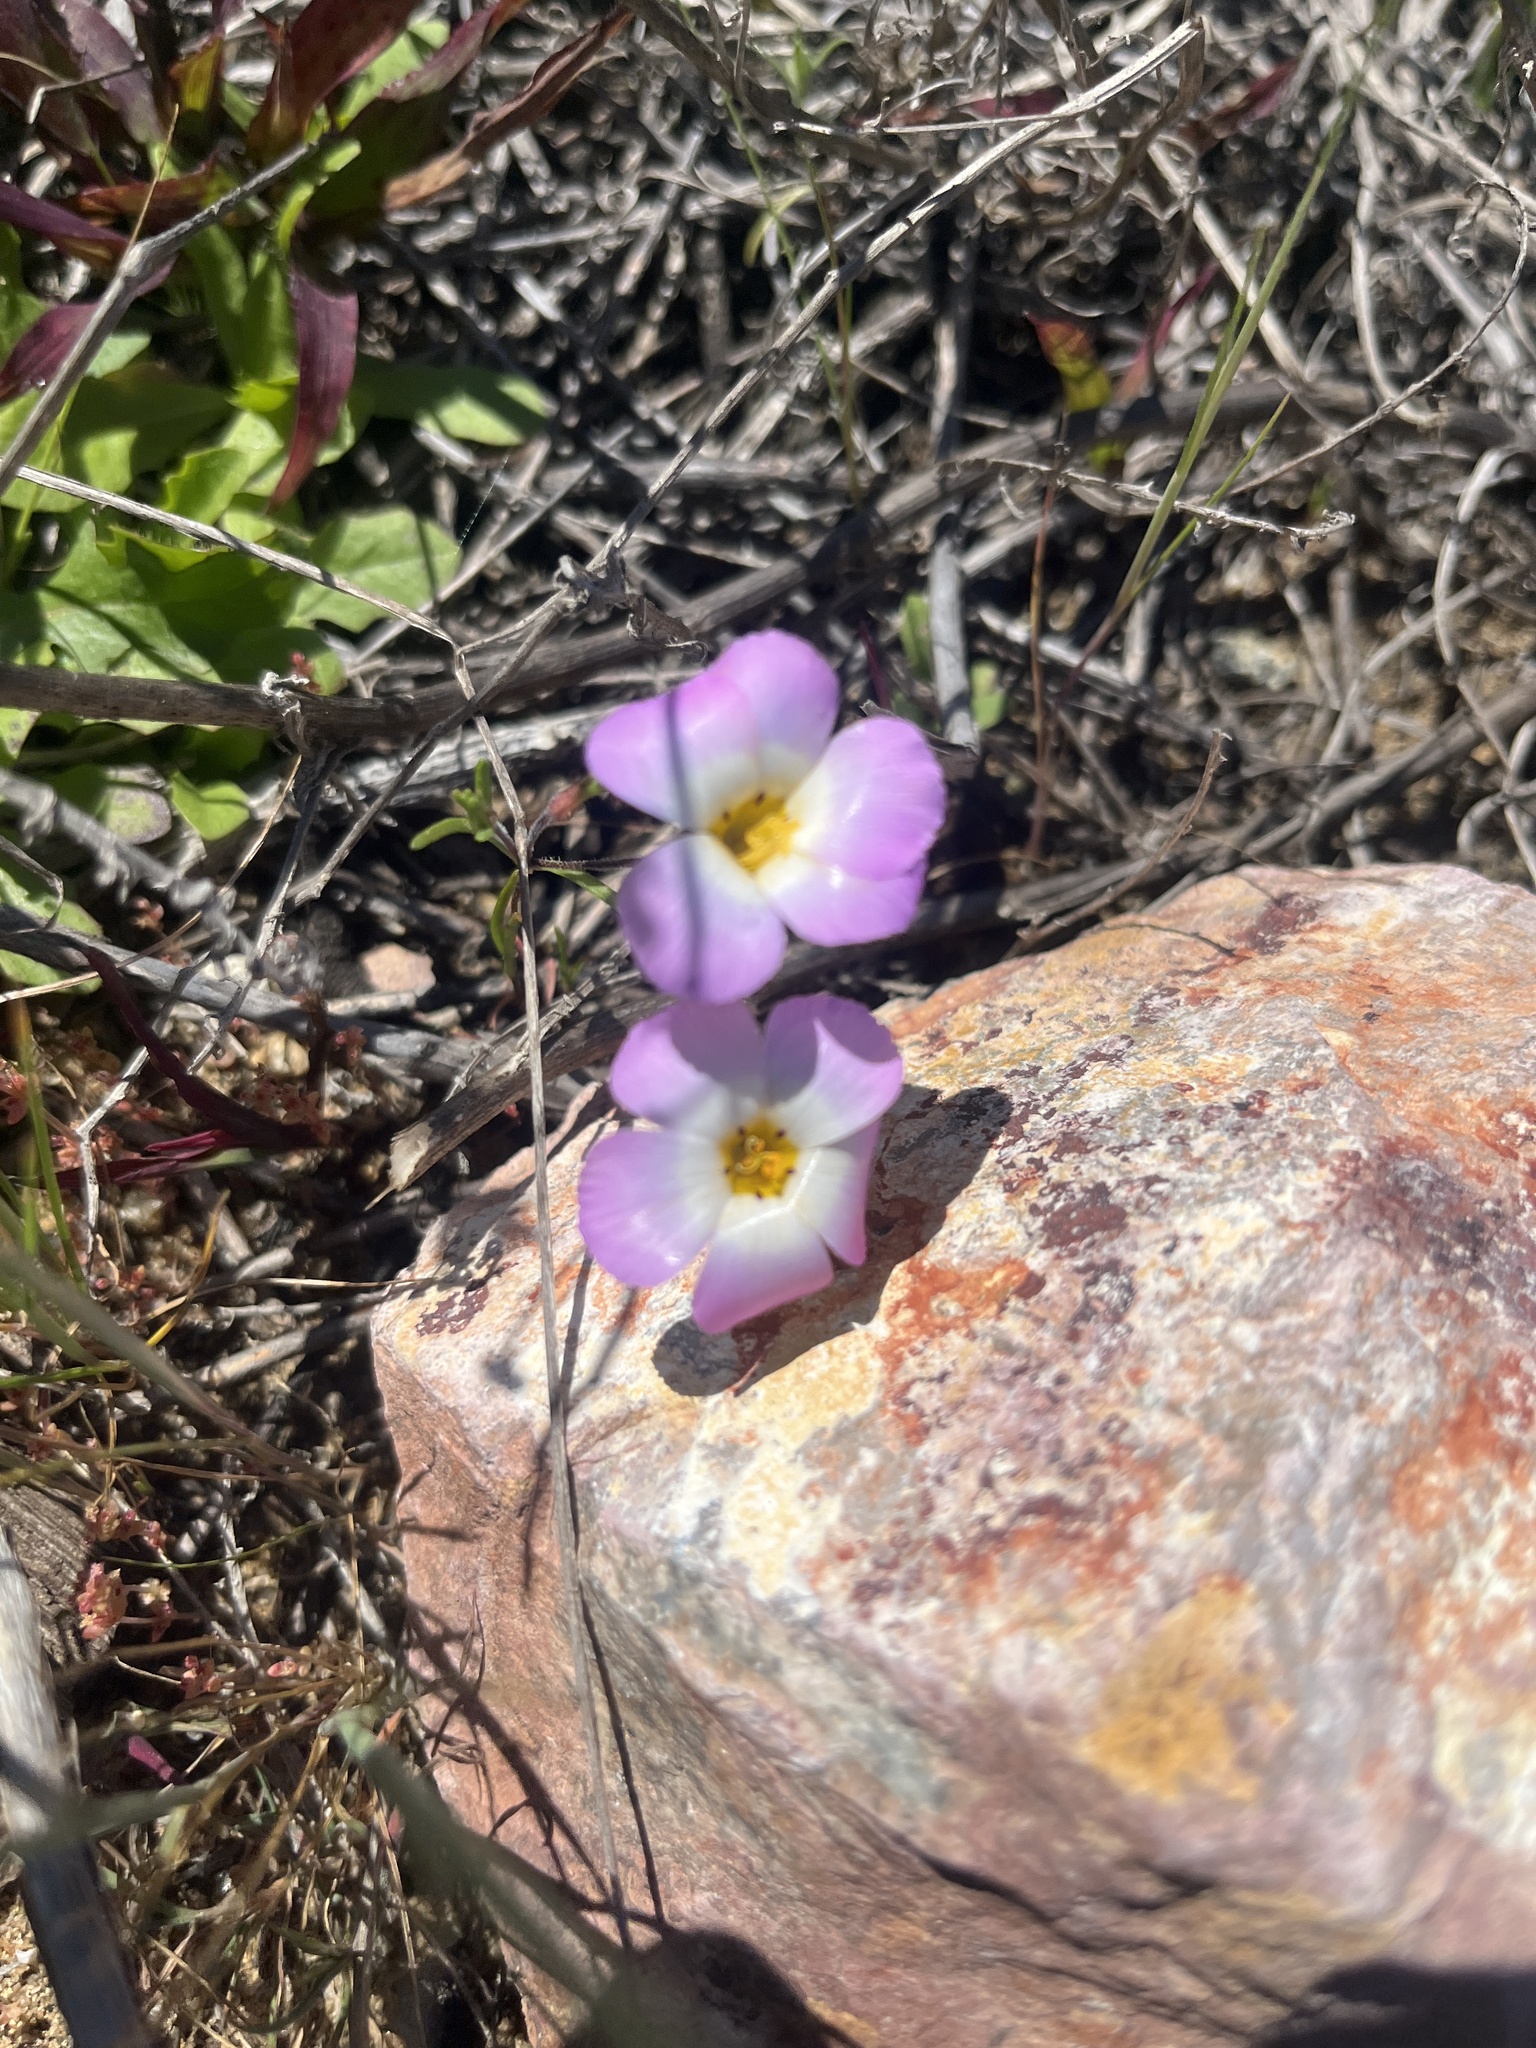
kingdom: Plantae
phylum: Tracheophyta
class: Magnoliopsida
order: Ericales
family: Polemoniaceae
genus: Linanthus
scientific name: Linanthus dianthiflorus
